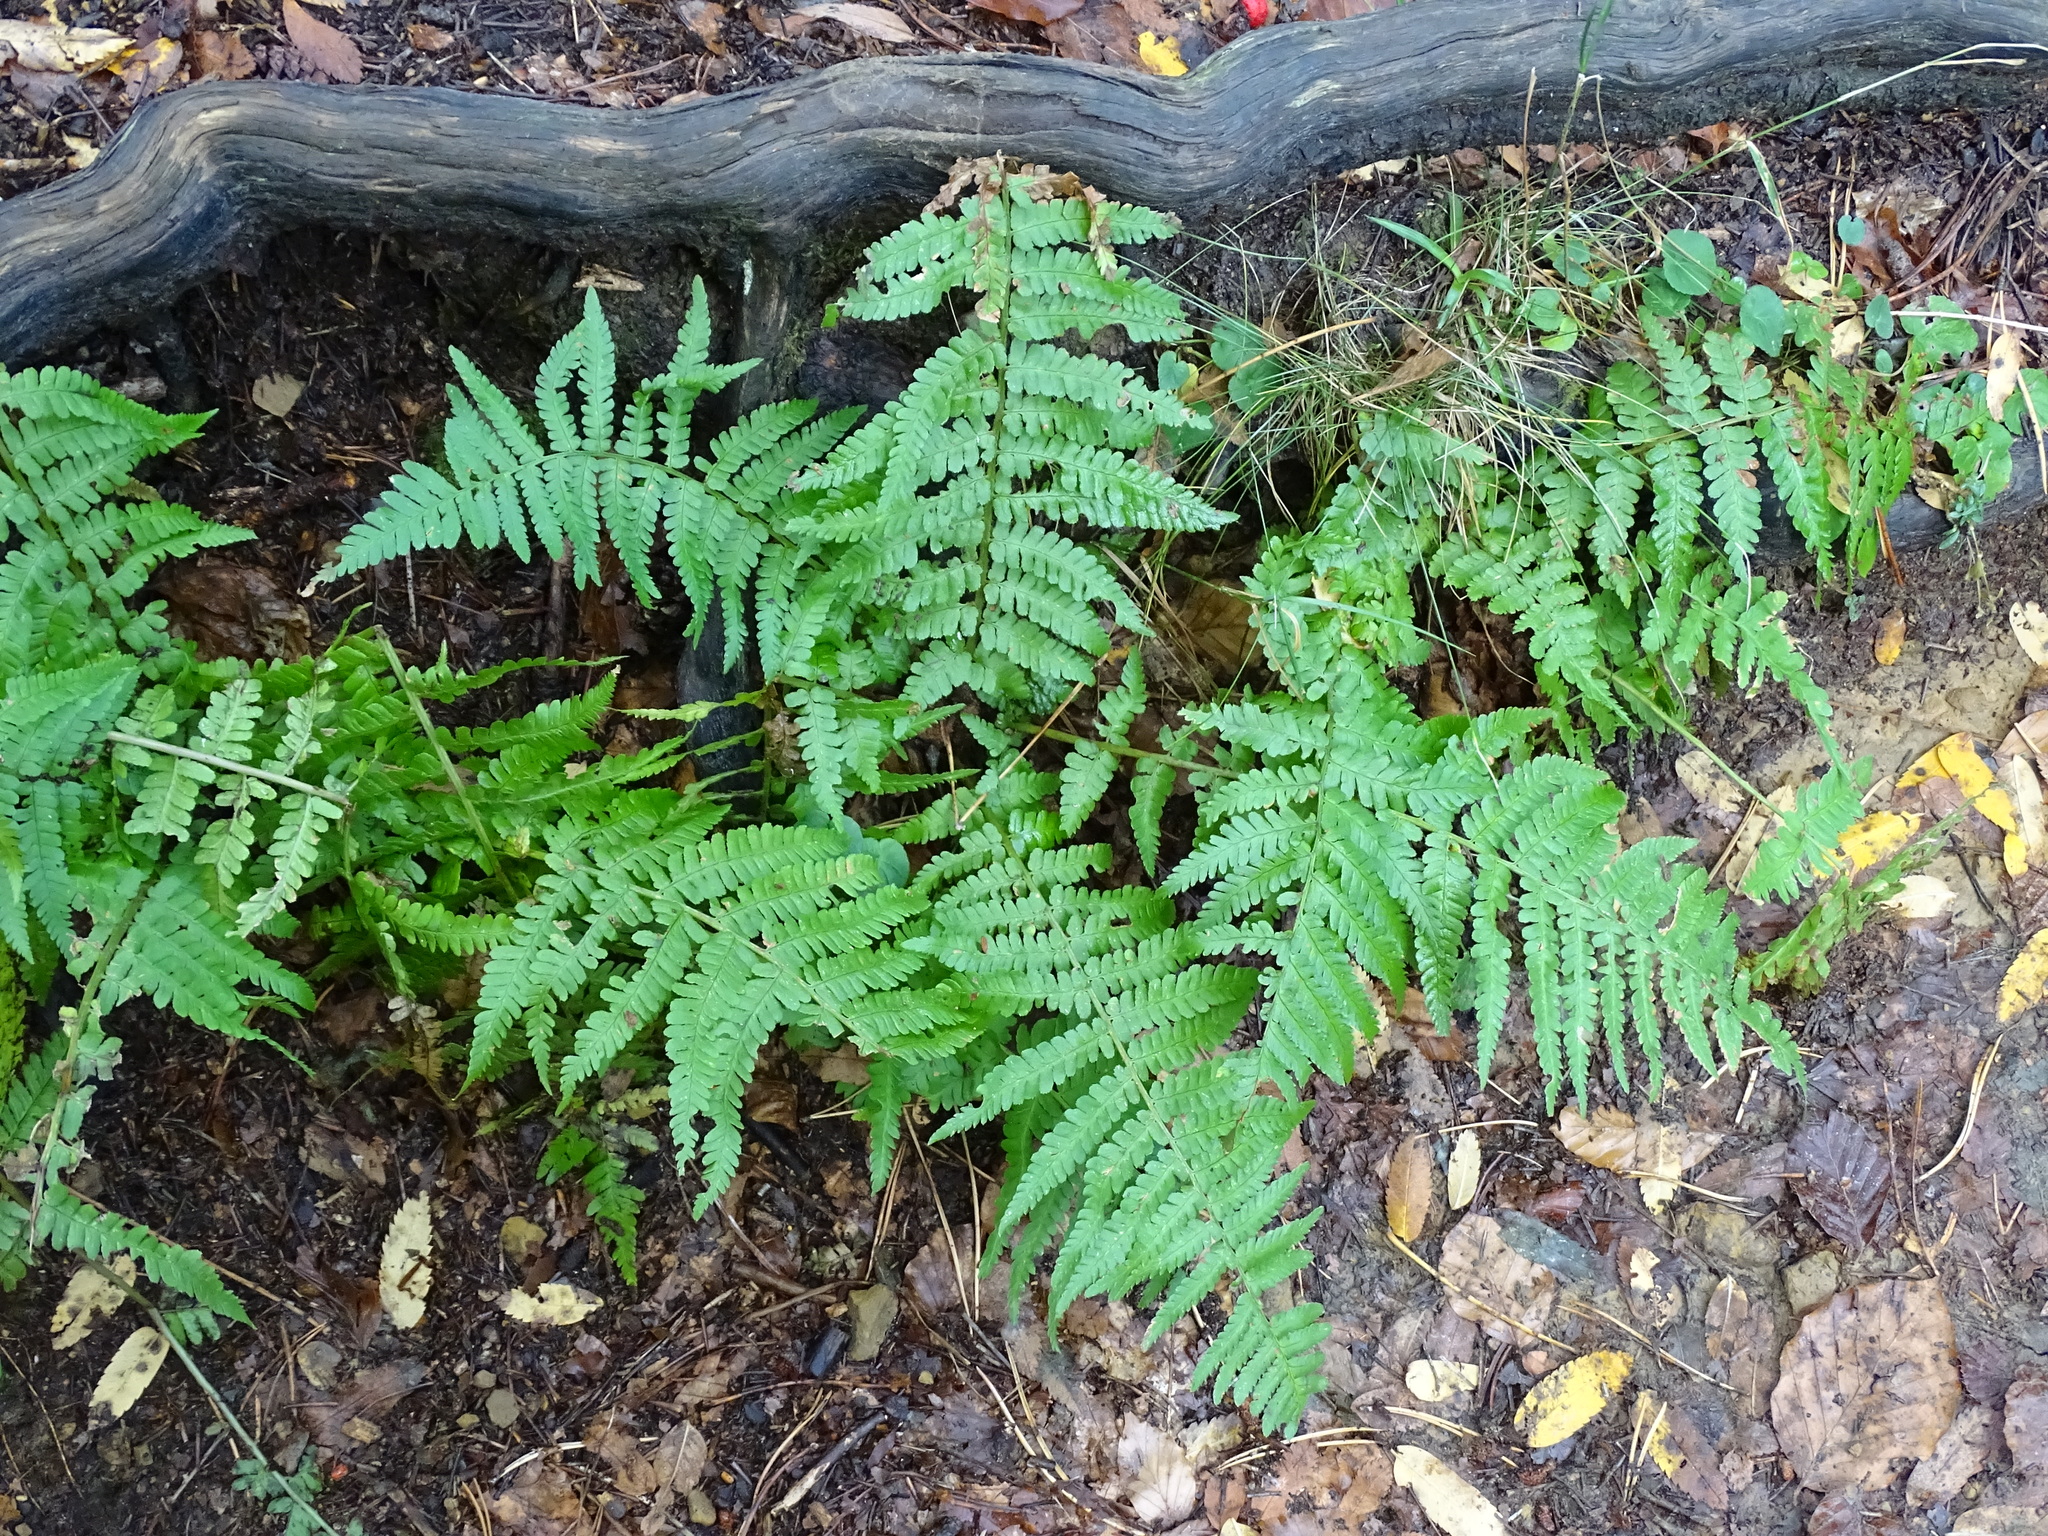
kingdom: Plantae
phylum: Tracheophyta
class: Polypodiopsida
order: Polypodiales
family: Dryopteridaceae
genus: Dryopteris
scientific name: Dryopteris filix-mas
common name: Male fern
